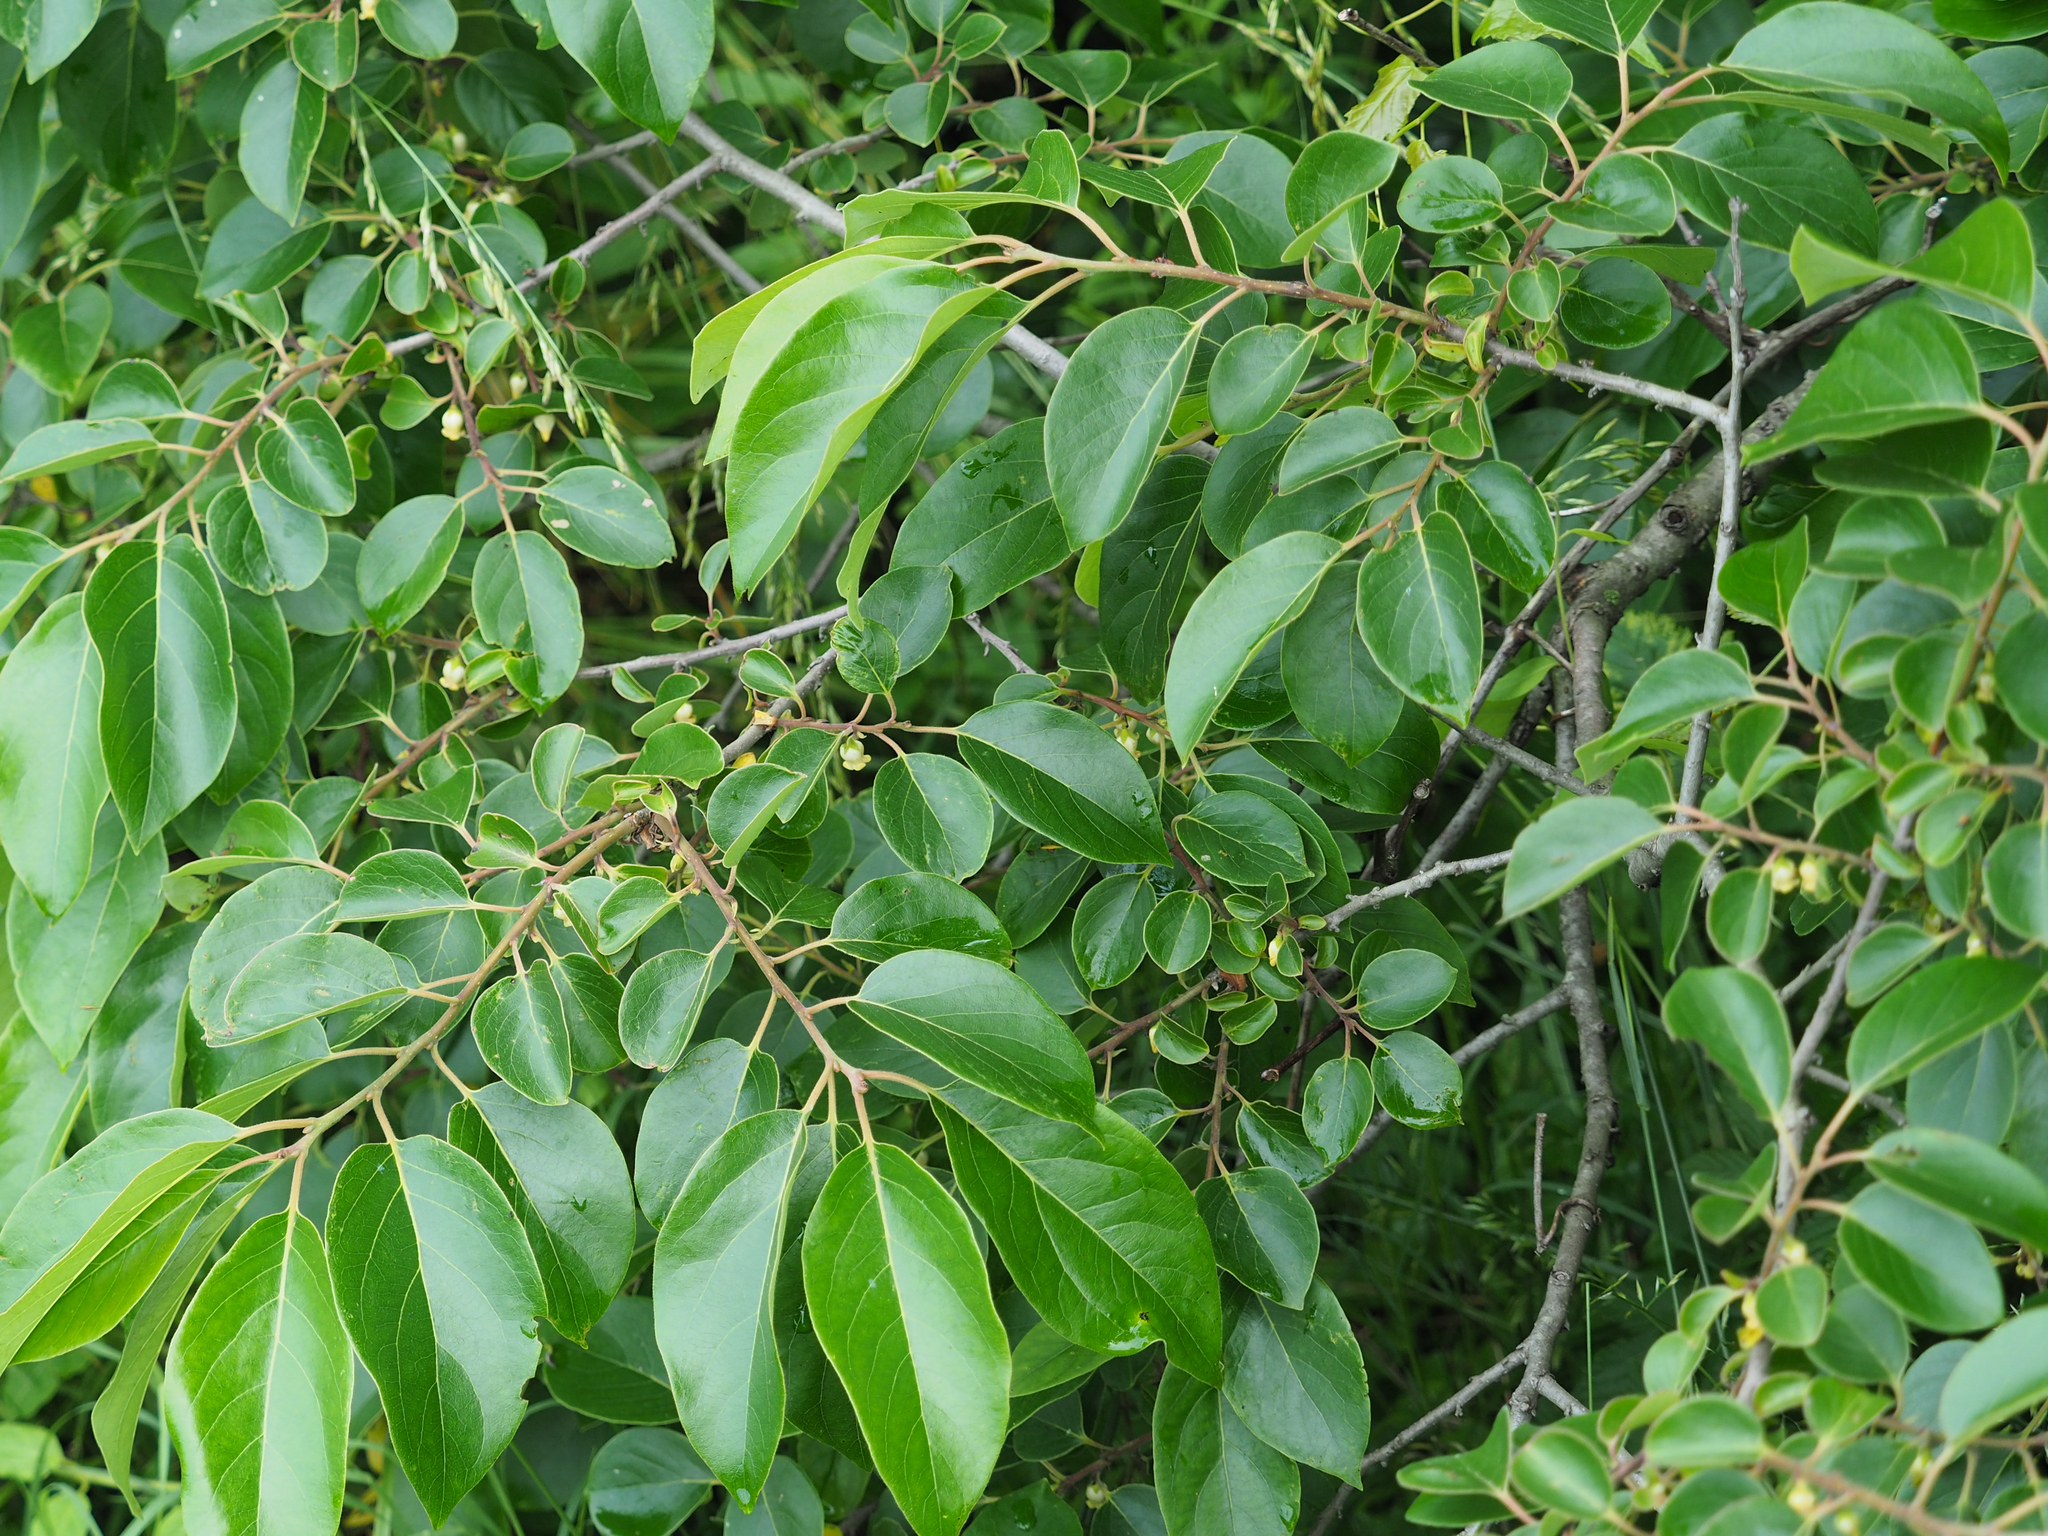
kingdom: Plantae
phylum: Tracheophyta
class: Magnoliopsida
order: Ericales
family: Ebenaceae
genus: Diospyros
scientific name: Diospyros virginiana
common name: Persimmon
